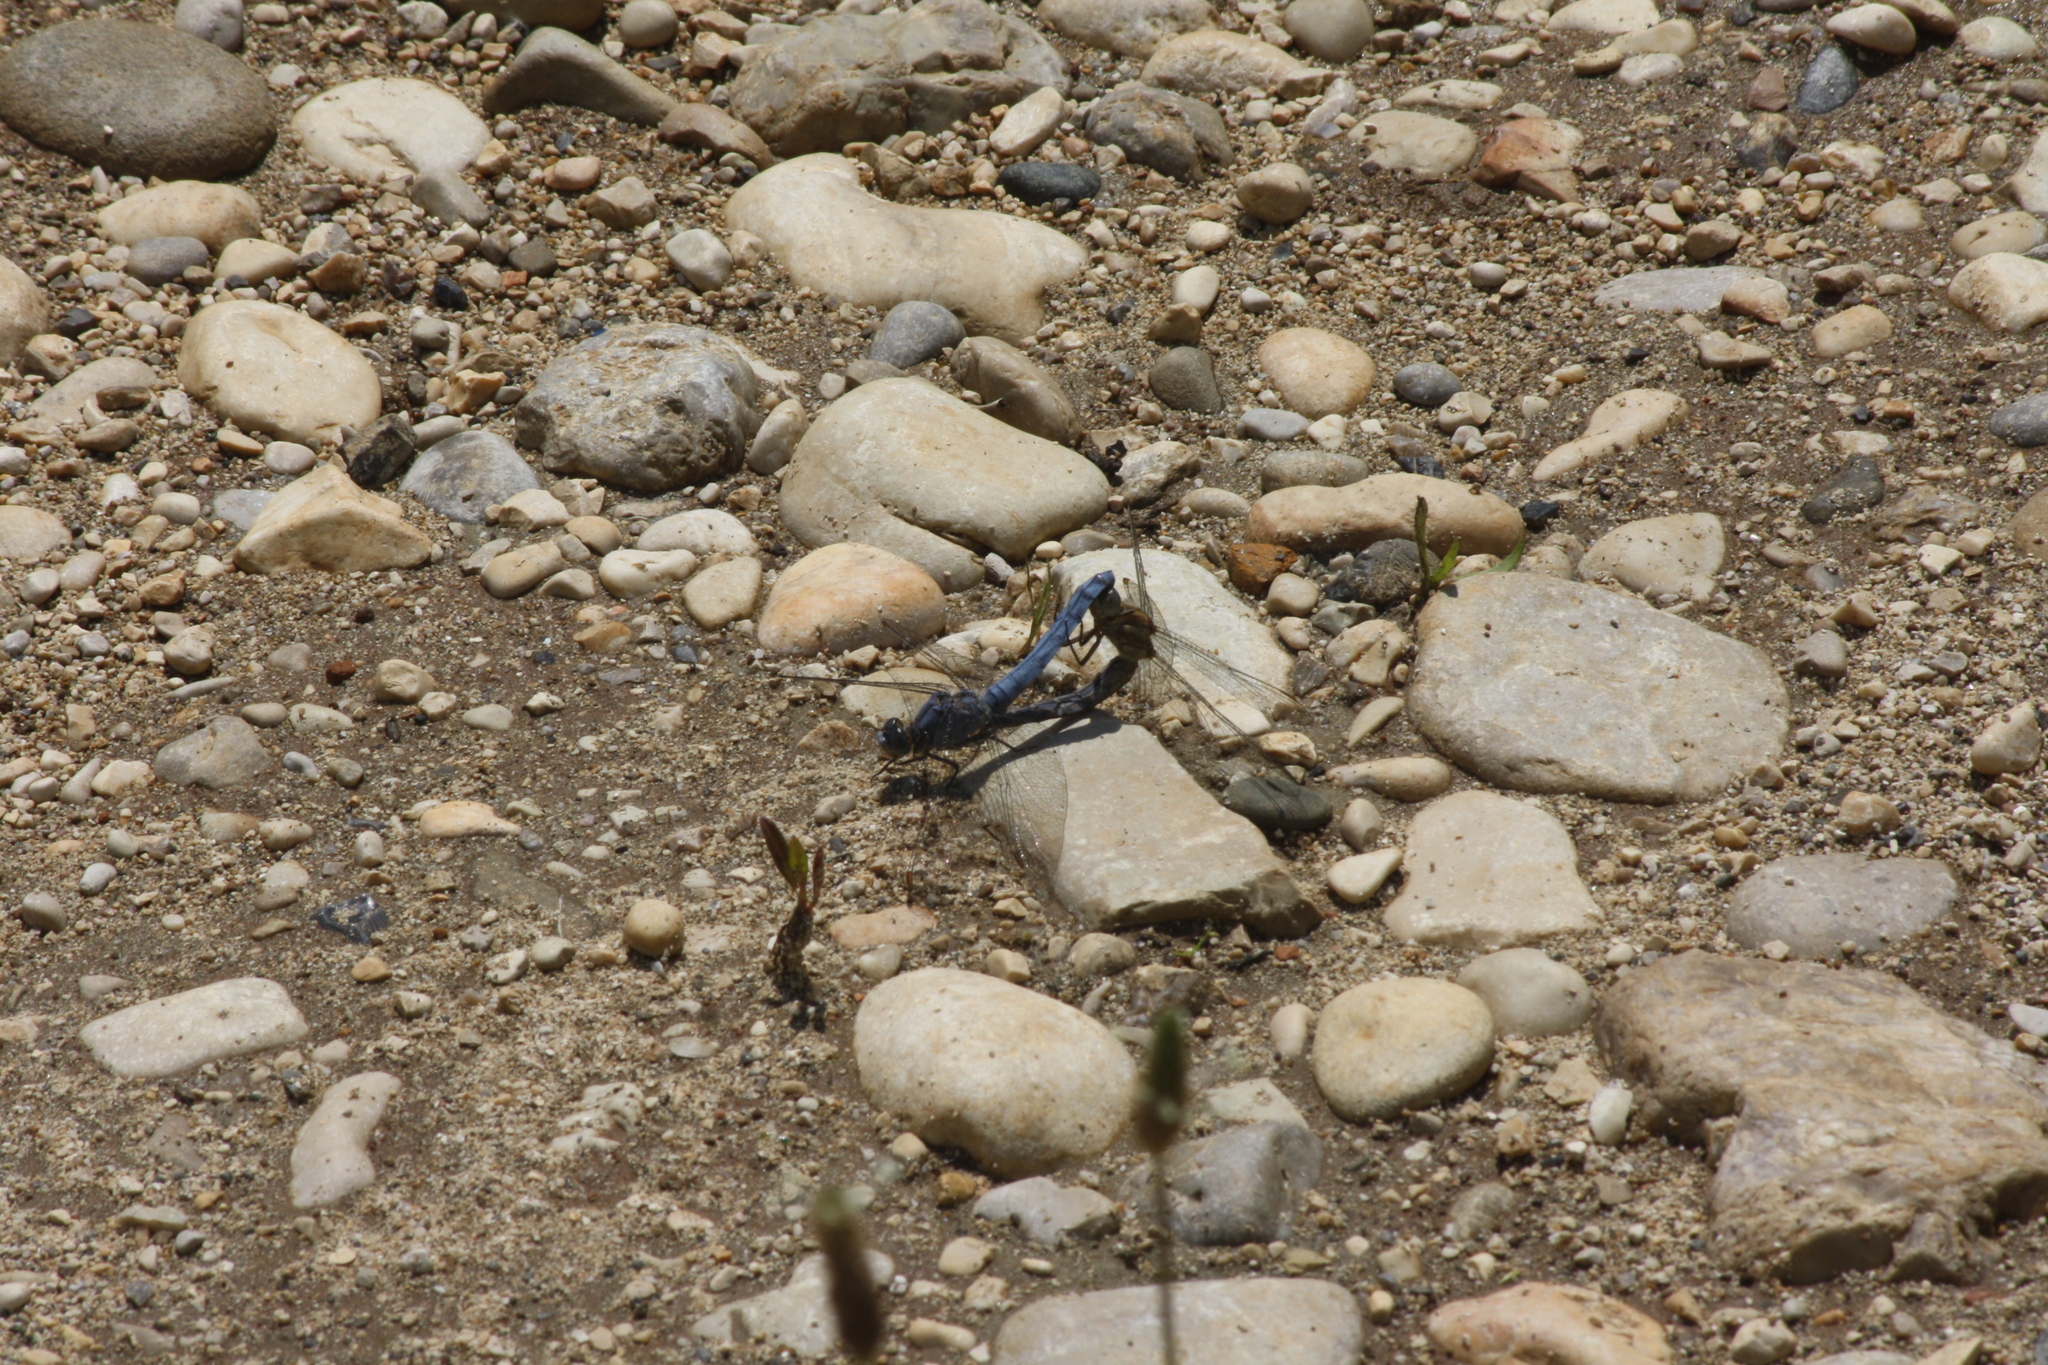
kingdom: Animalia
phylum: Arthropoda
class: Insecta
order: Odonata
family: Libellulidae
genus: Orthetrum
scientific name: Orthetrum brunneum
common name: Southern skimmer
